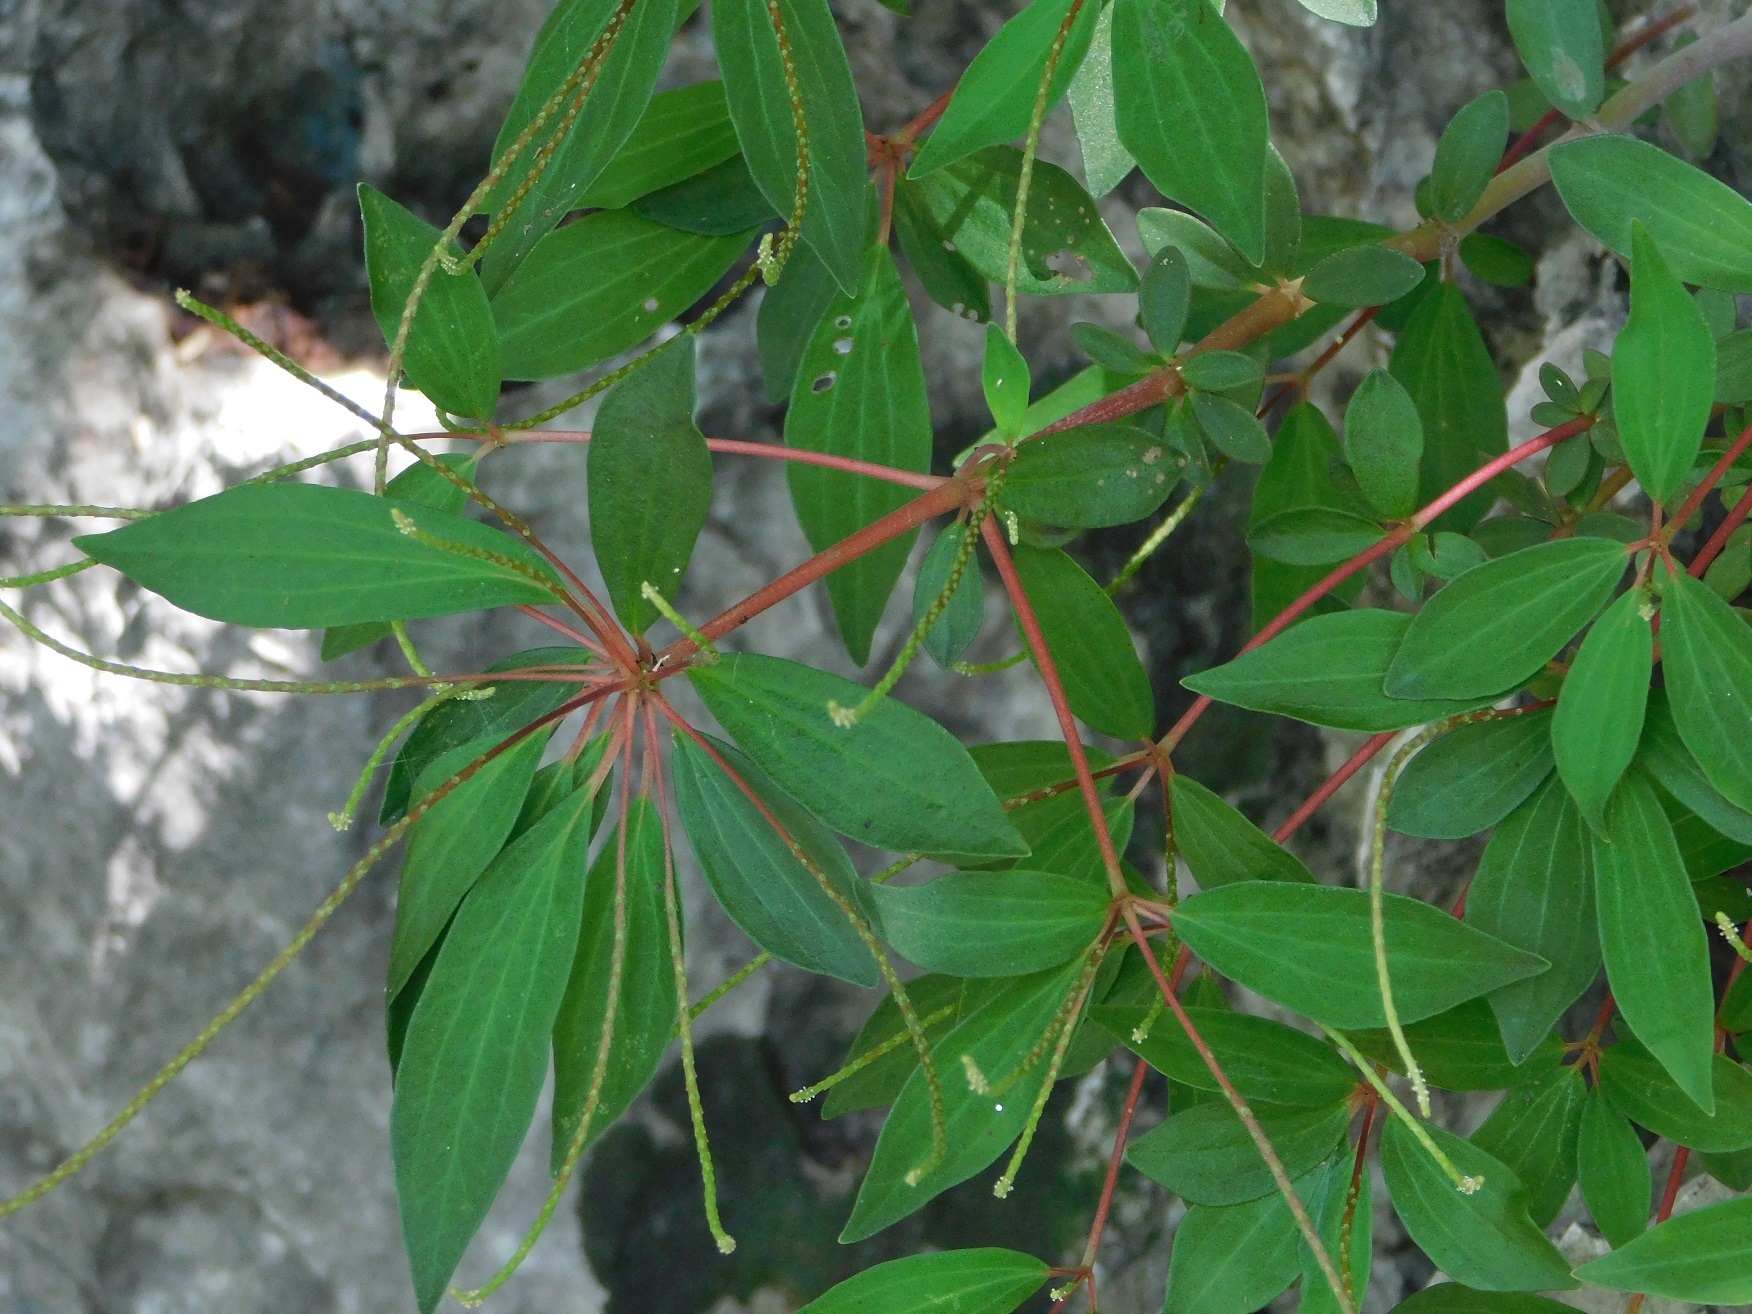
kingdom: Plantae
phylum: Tracheophyta
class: Magnoliopsida
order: Piperales
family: Piperaceae
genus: Peperomia
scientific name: Peperomia heterodoxa
